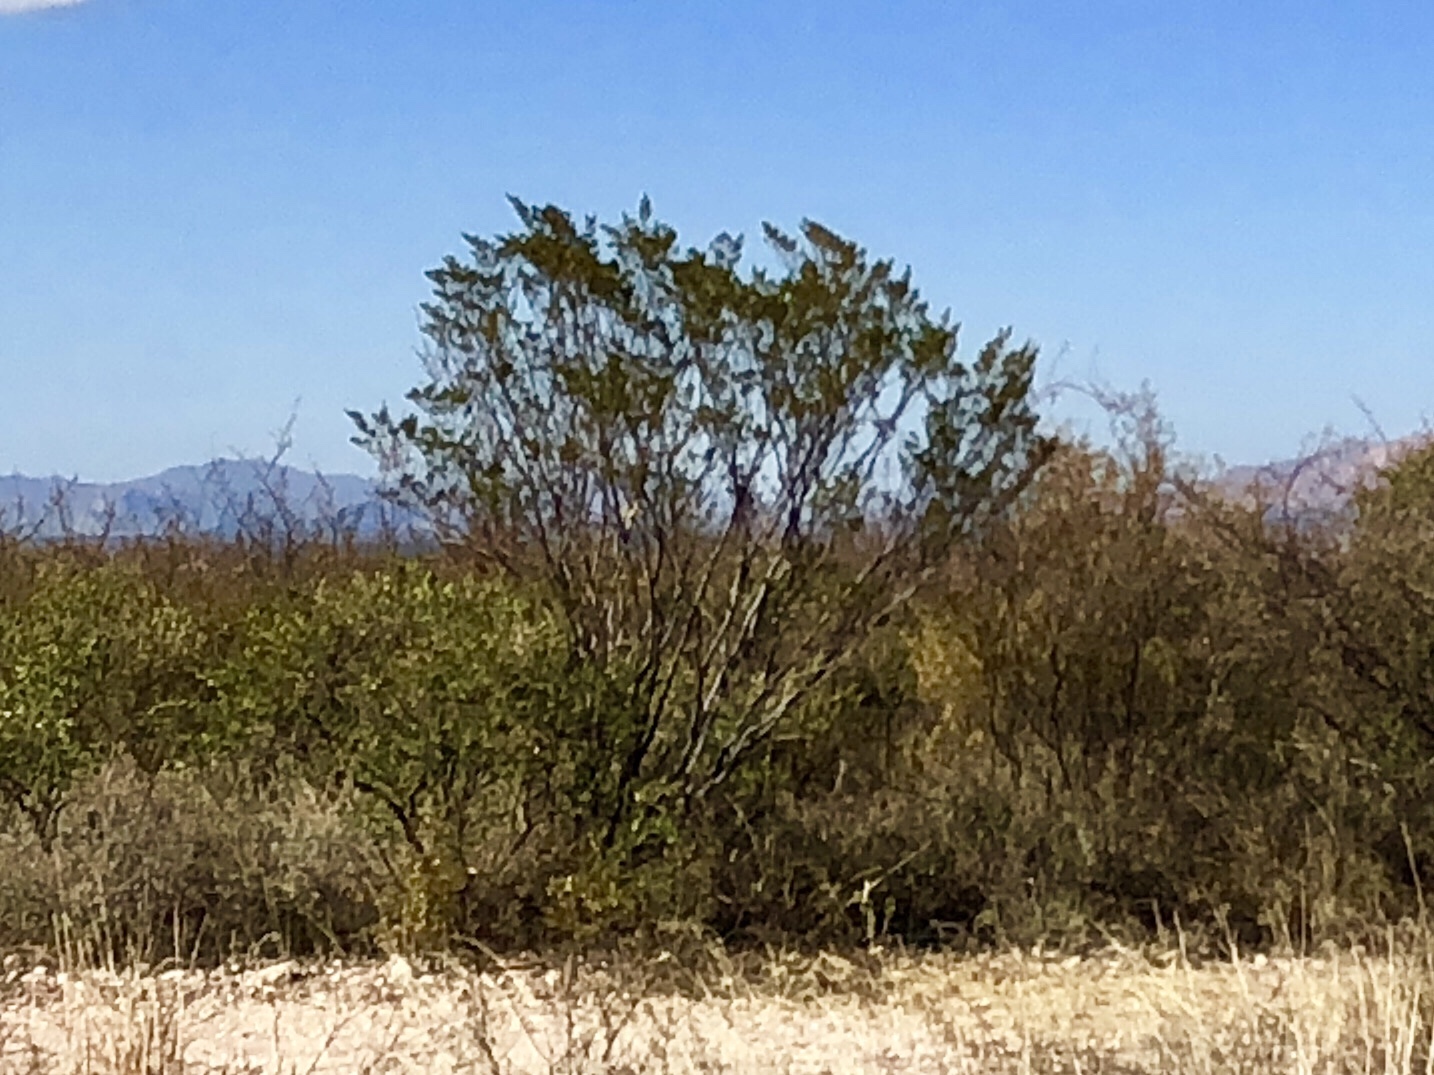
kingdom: Plantae
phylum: Tracheophyta
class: Magnoliopsida
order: Zygophyllales
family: Zygophyllaceae
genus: Larrea
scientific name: Larrea tridentata
